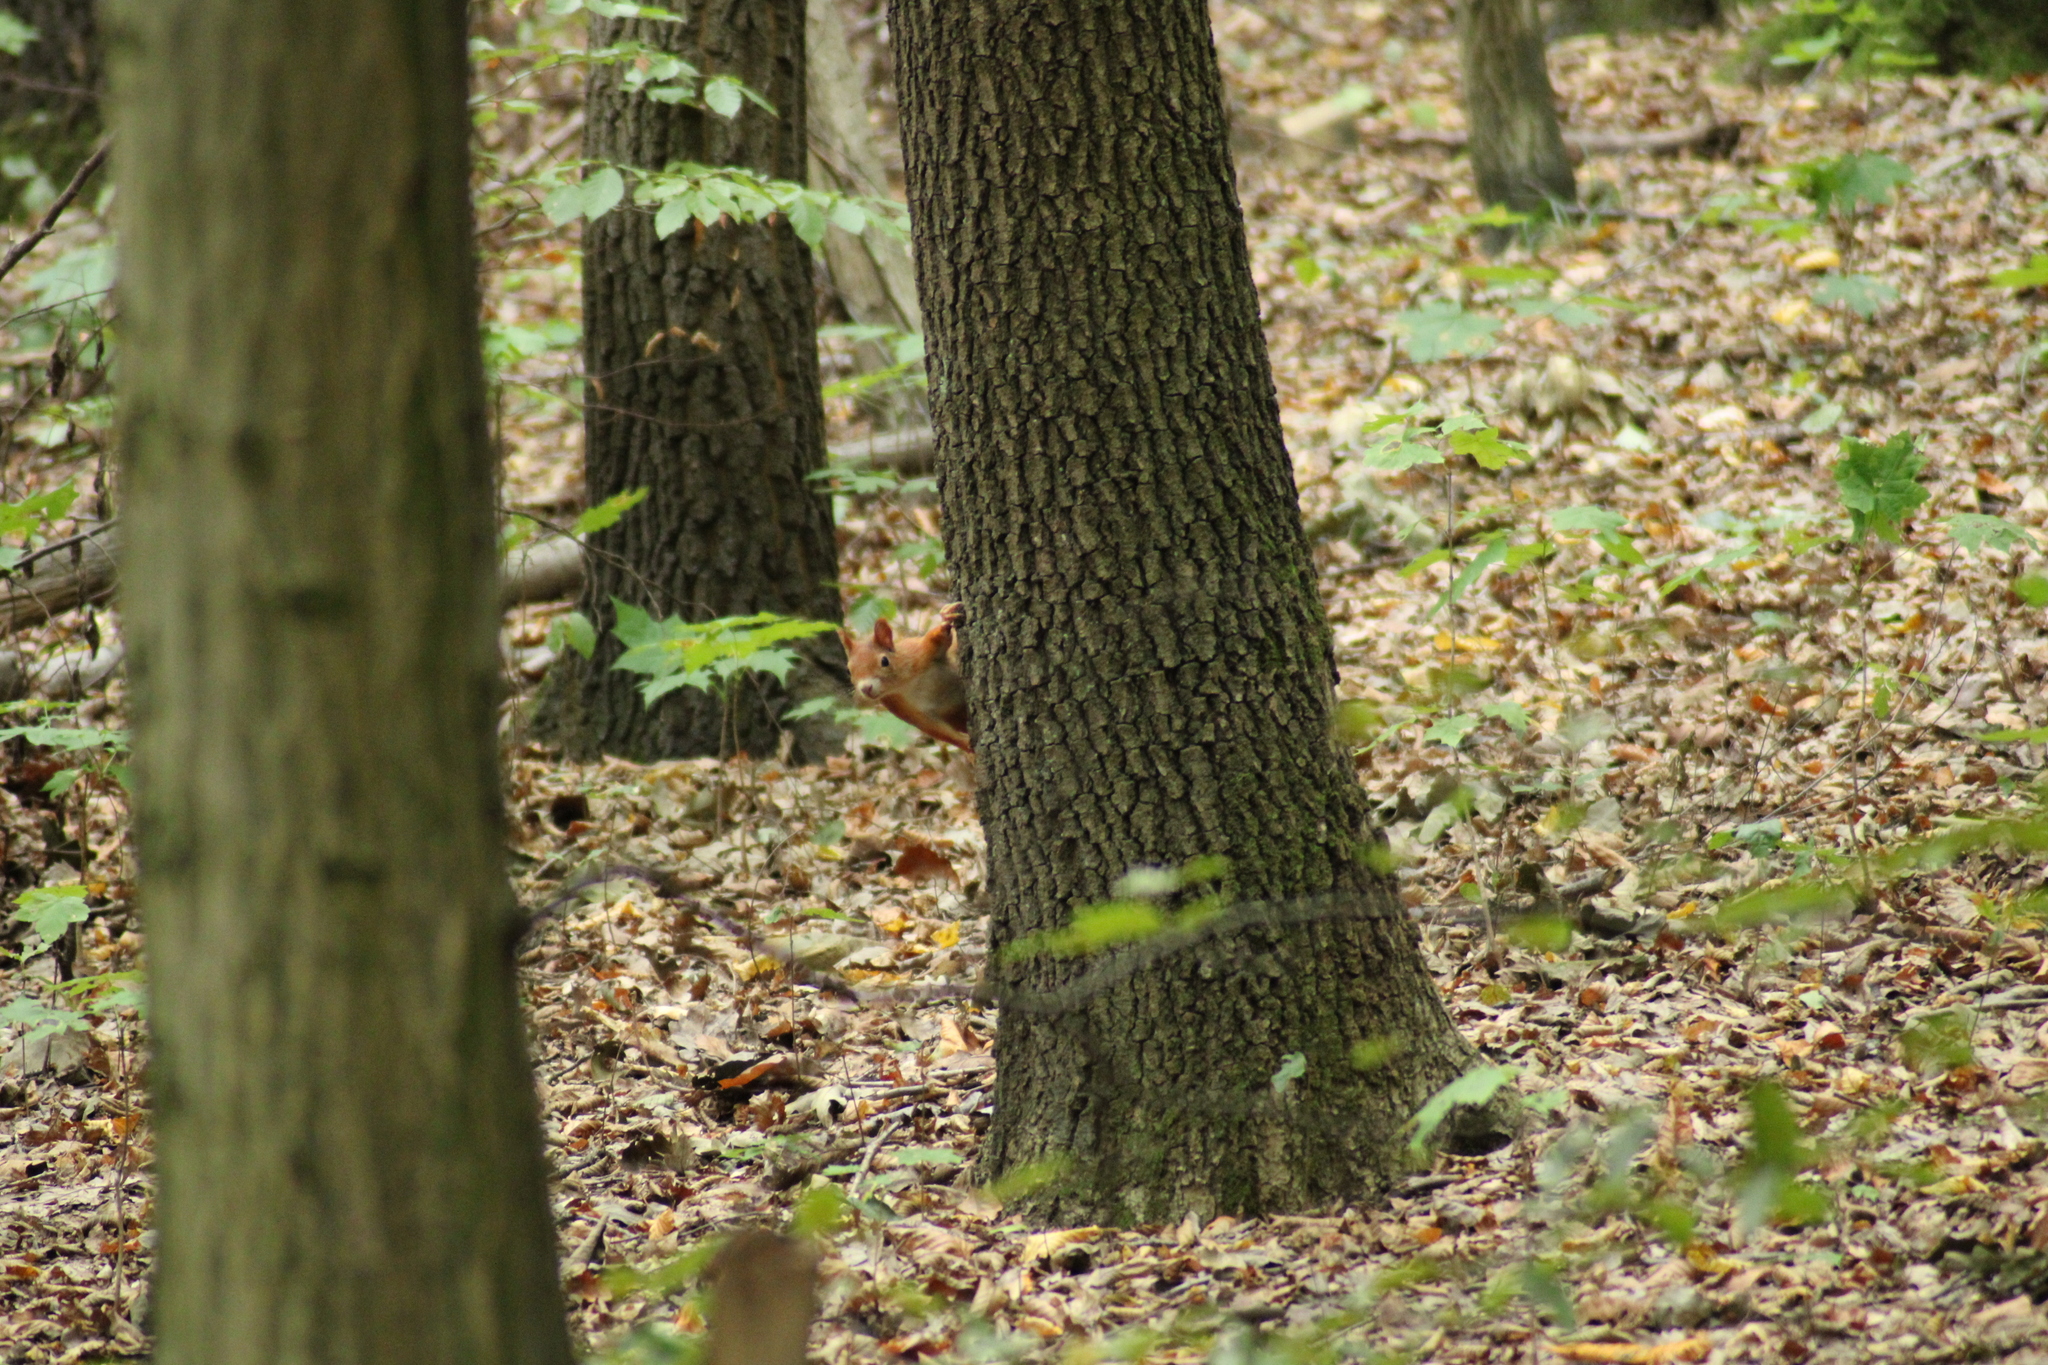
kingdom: Animalia
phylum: Chordata
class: Mammalia
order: Rodentia
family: Sciuridae
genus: Sciurus
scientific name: Sciurus vulgaris
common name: Eurasian red squirrel
